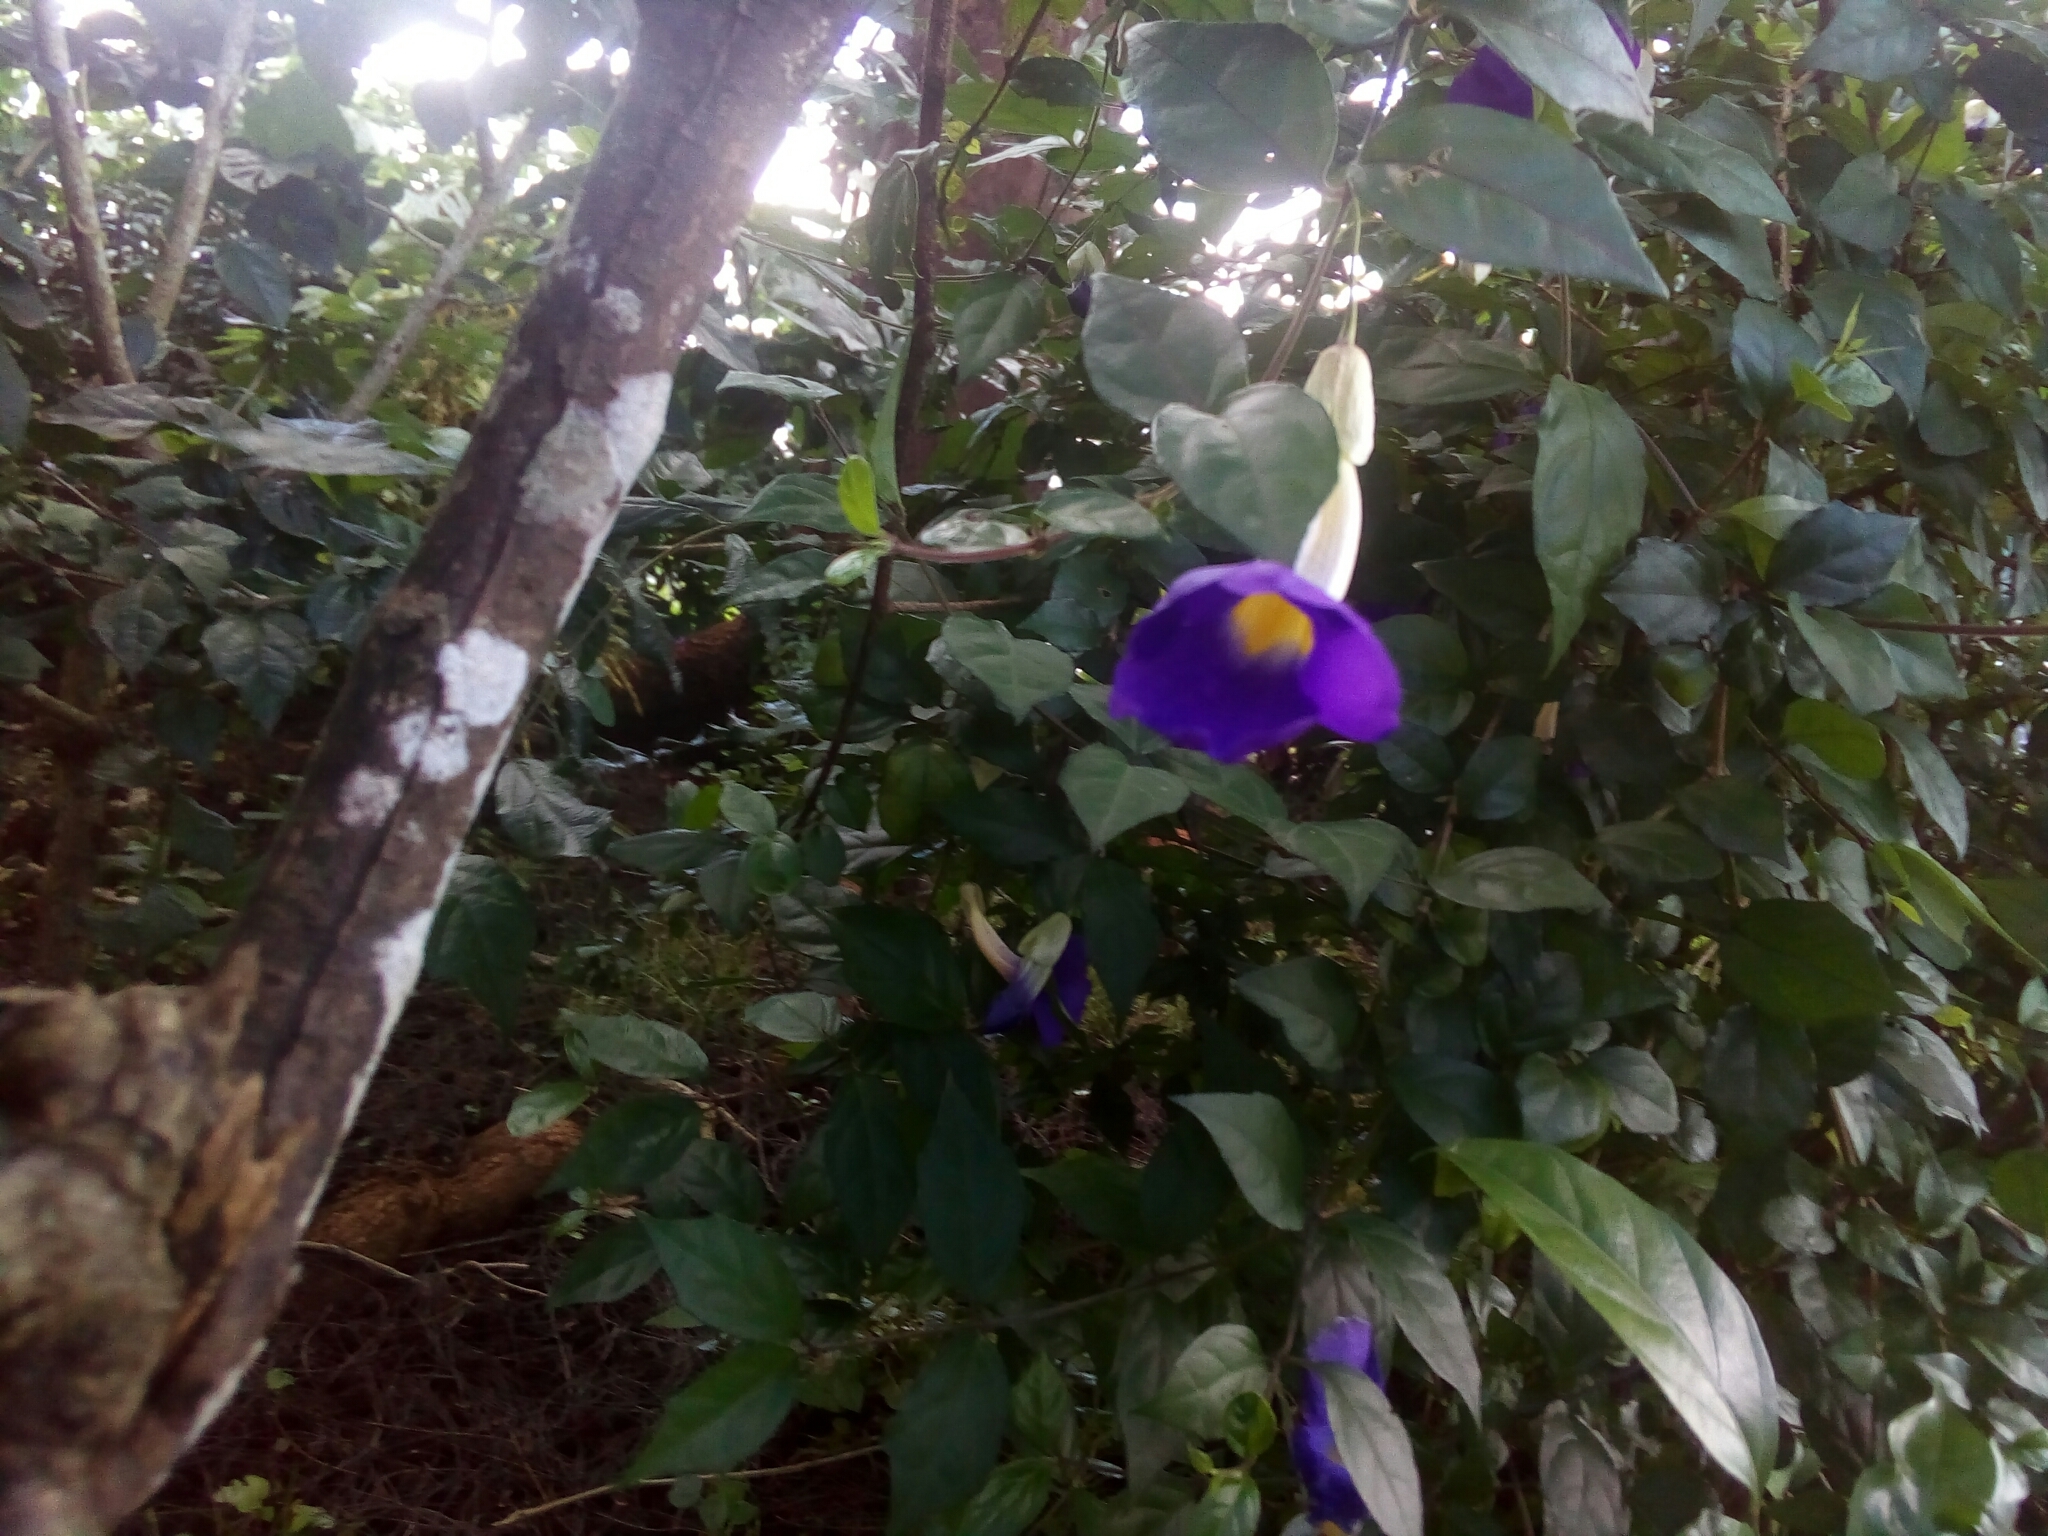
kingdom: Plantae
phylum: Tracheophyta
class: Magnoliopsida
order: Lamiales
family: Acanthaceae
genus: Thunbergia
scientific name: Thunbergia erecta
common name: Bush clockvine
